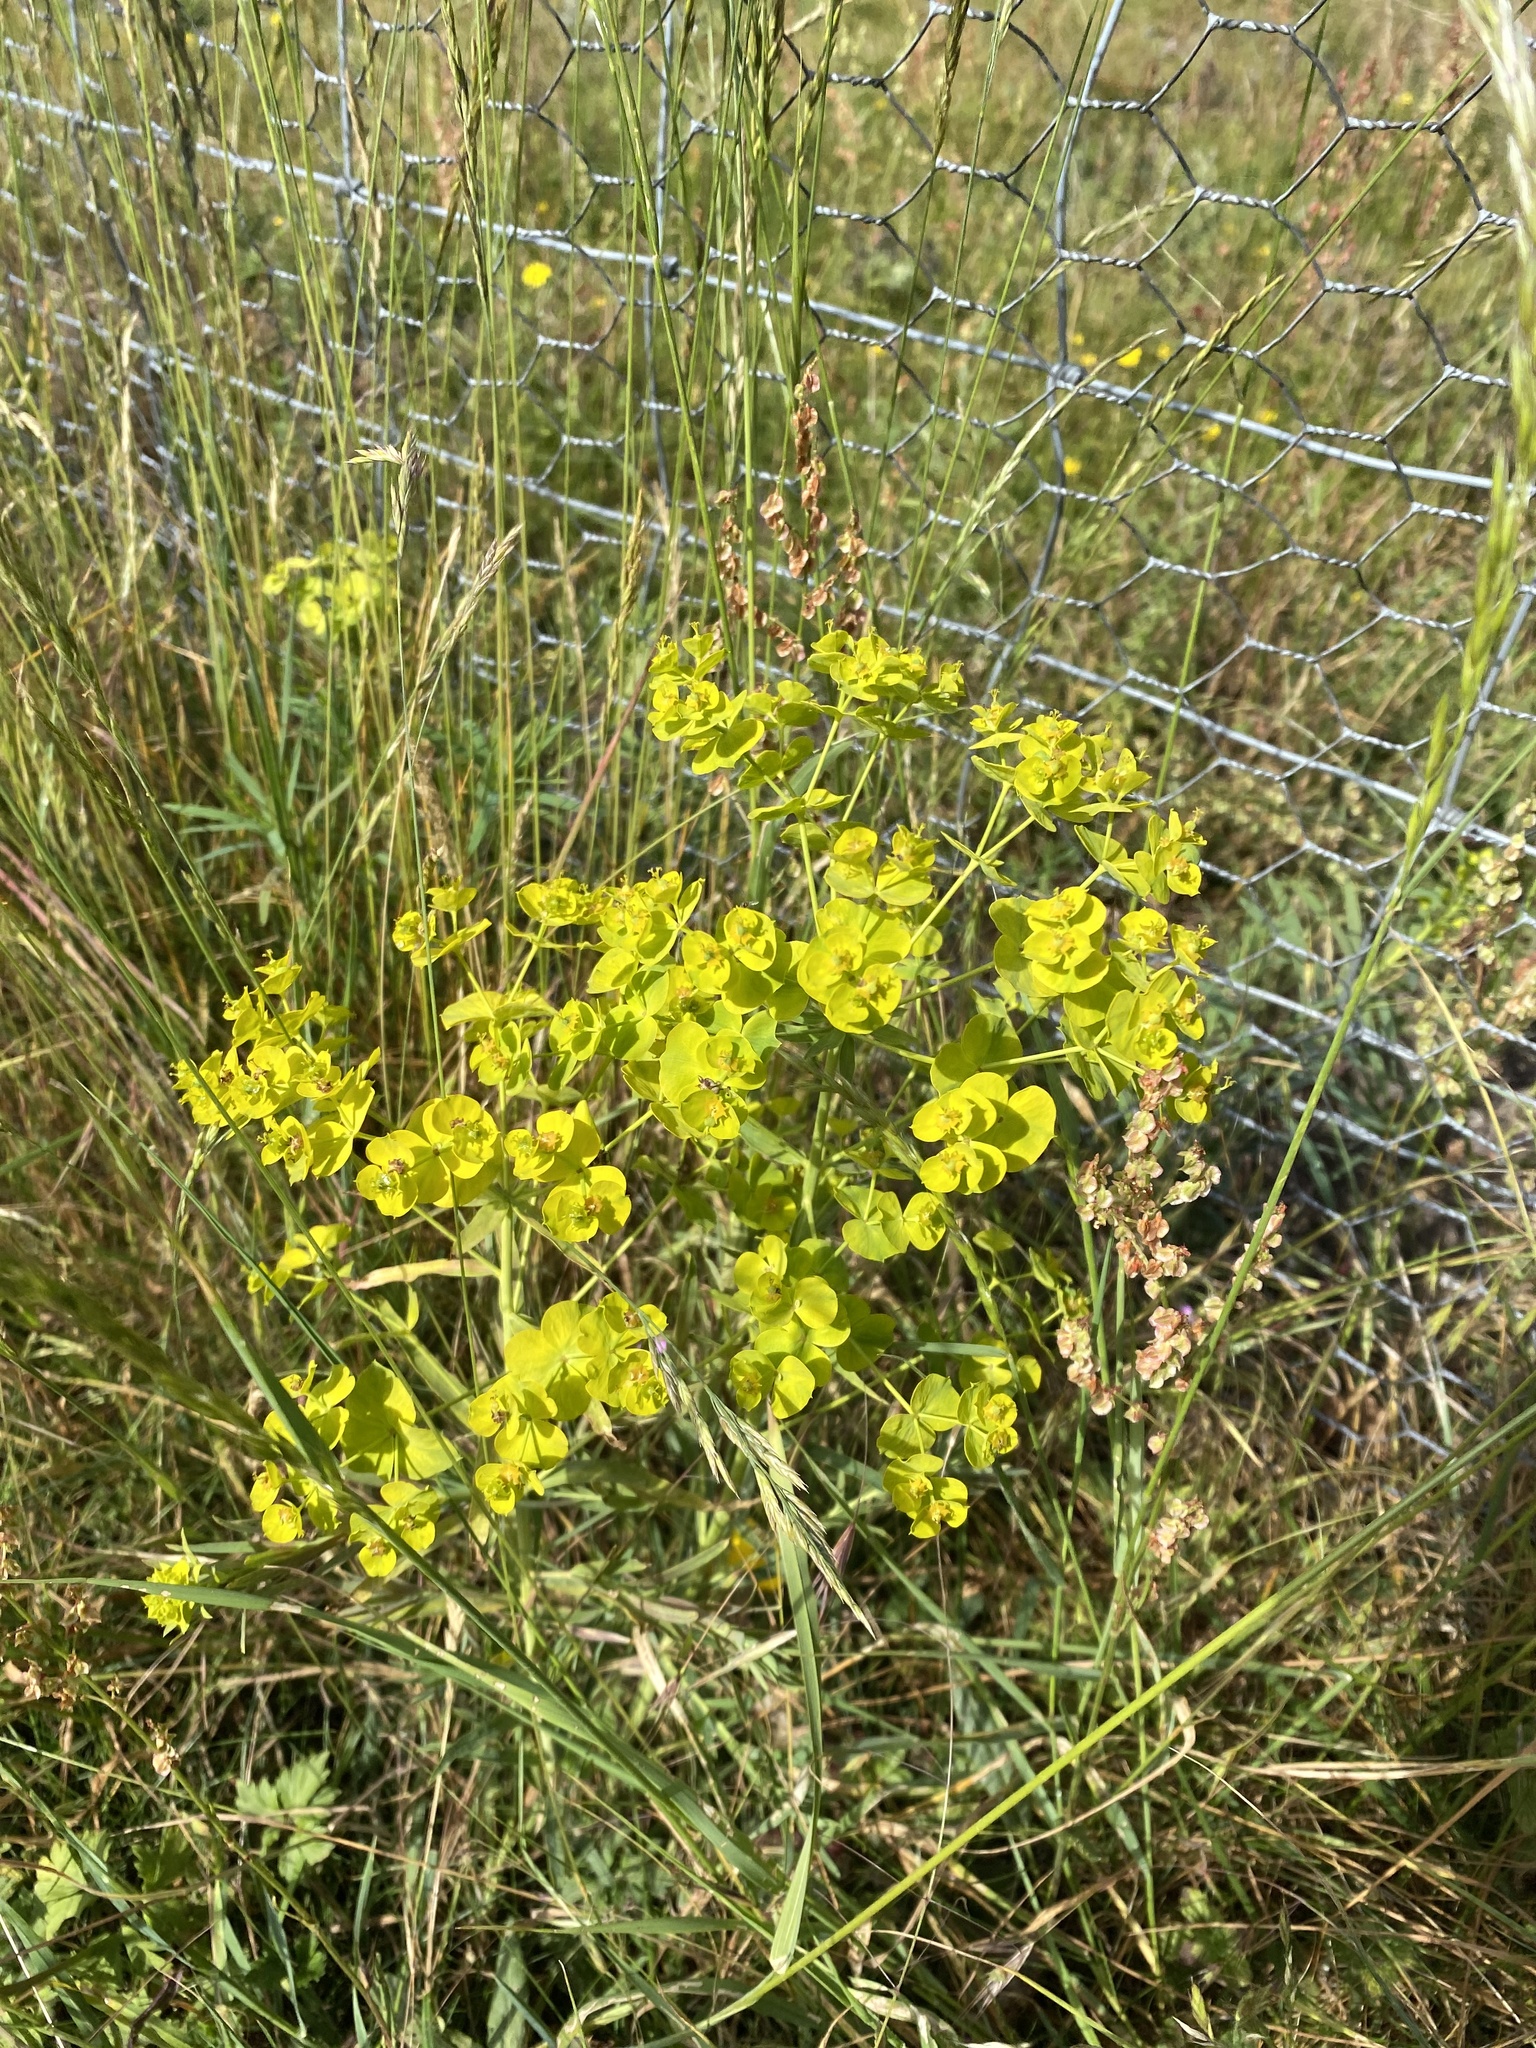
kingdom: Plantae
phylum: Tracheophyta
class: Magnoliopsida
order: Malpighiales
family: Euphorbiaceae
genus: Euphorbia
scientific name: Euphorbia esula
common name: Leafy spurge
